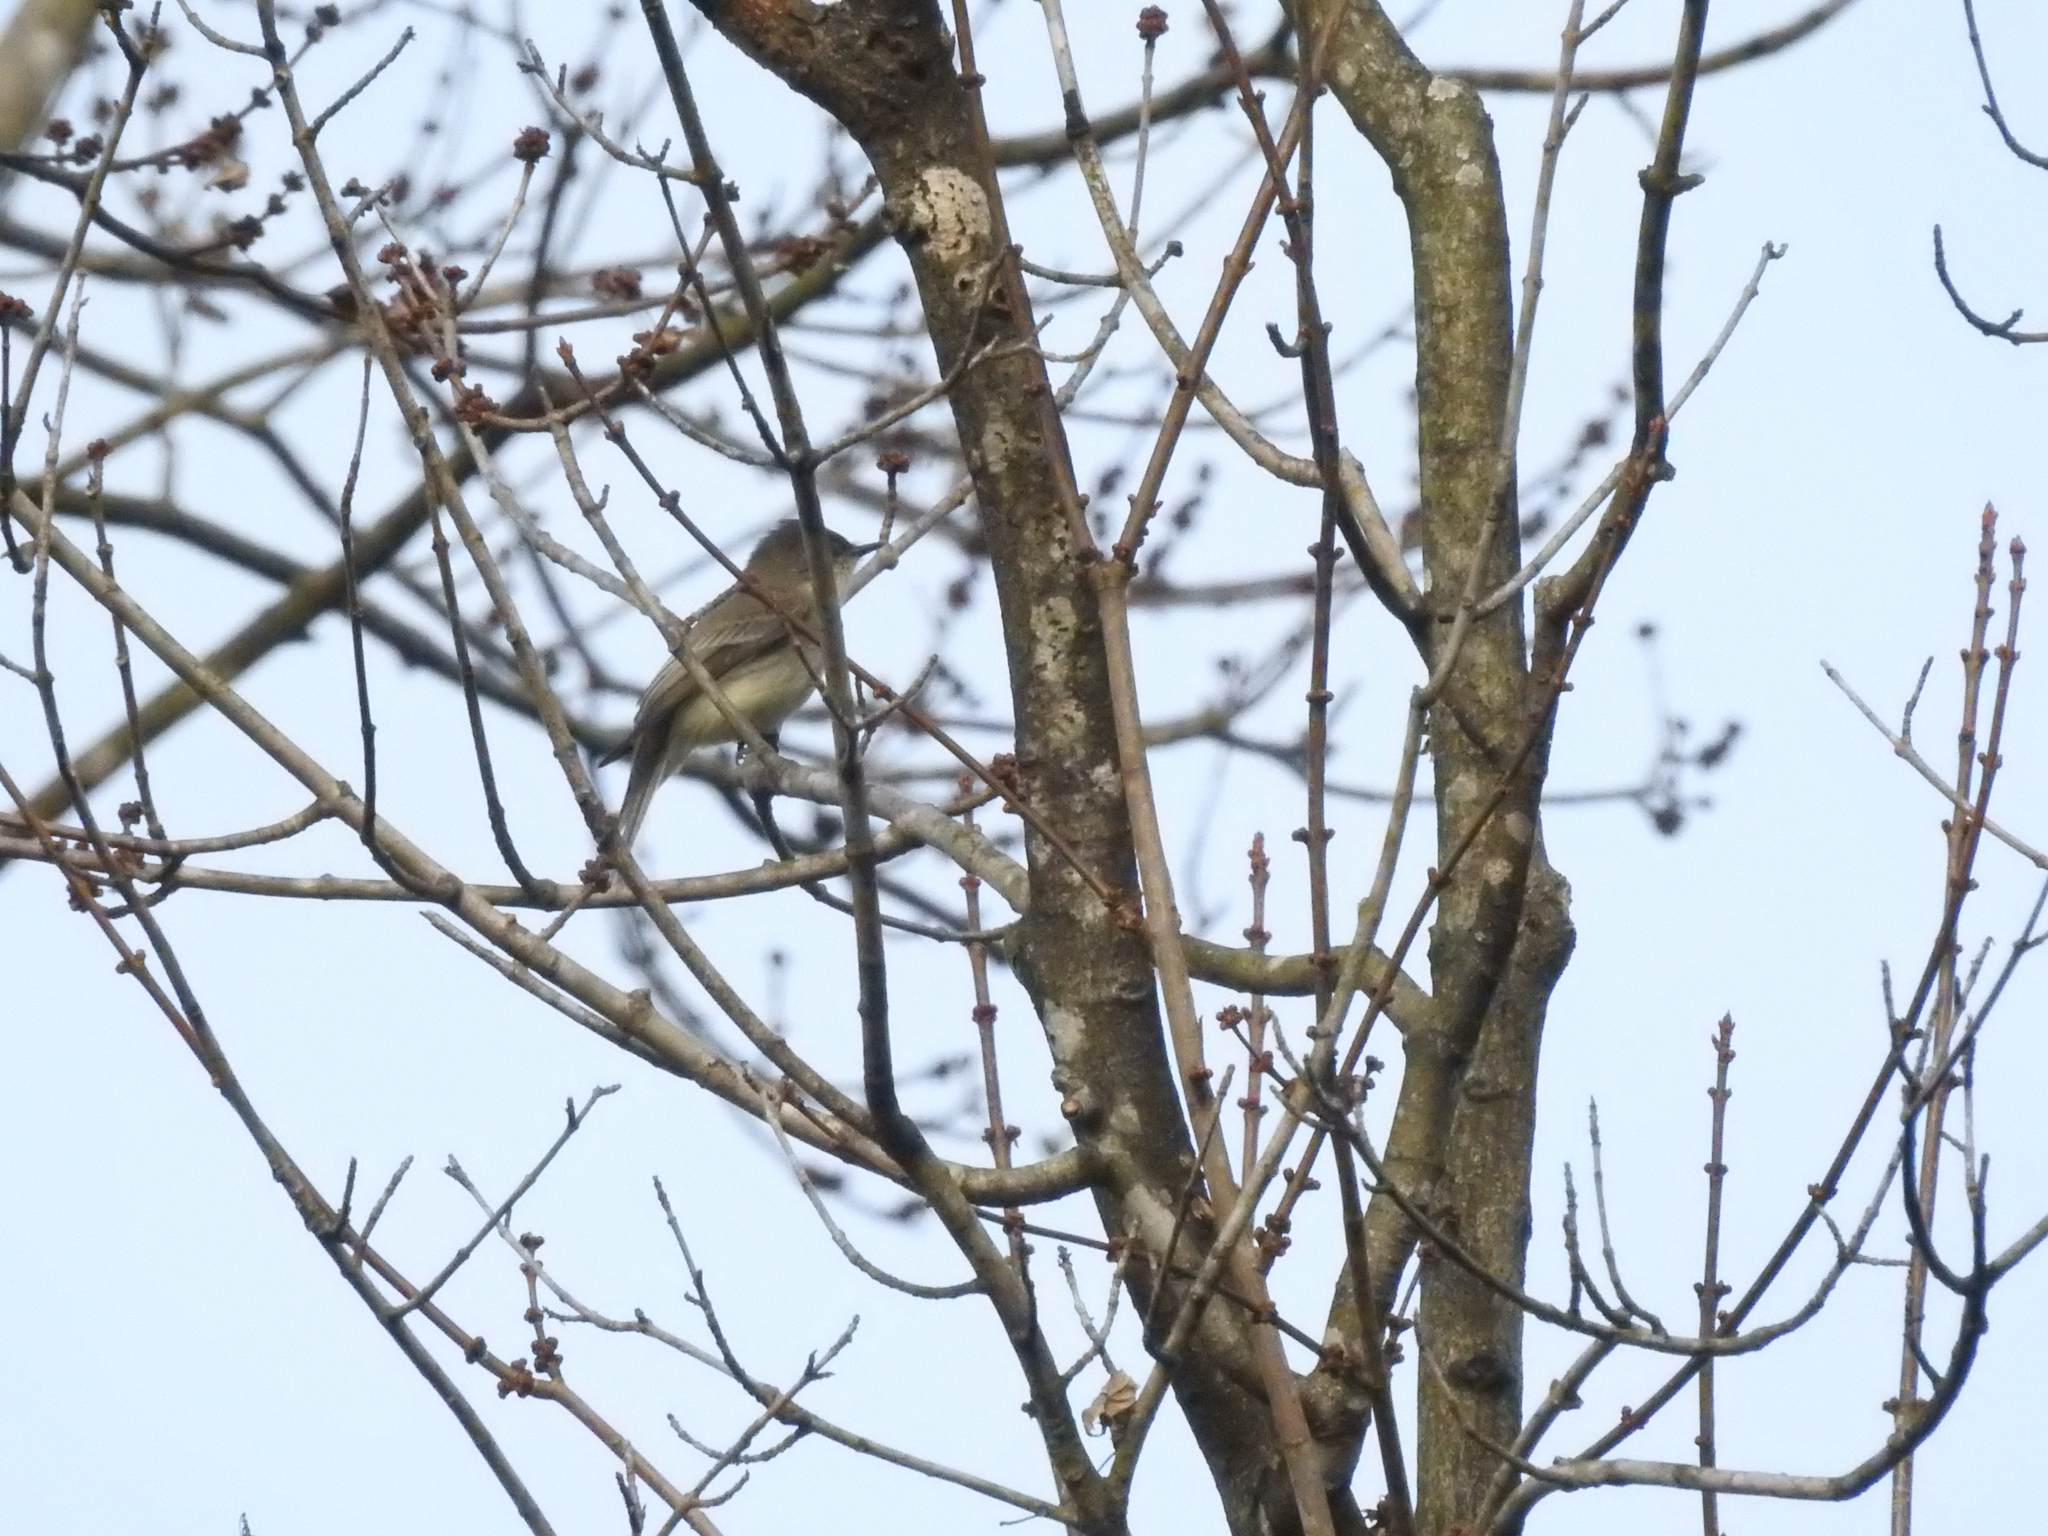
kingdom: Animalia
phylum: Chordata
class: Aves
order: Passeriformes
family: Tyrannidae
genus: Sayornis
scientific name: Sayornis phoebe
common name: Eastern phoebe
